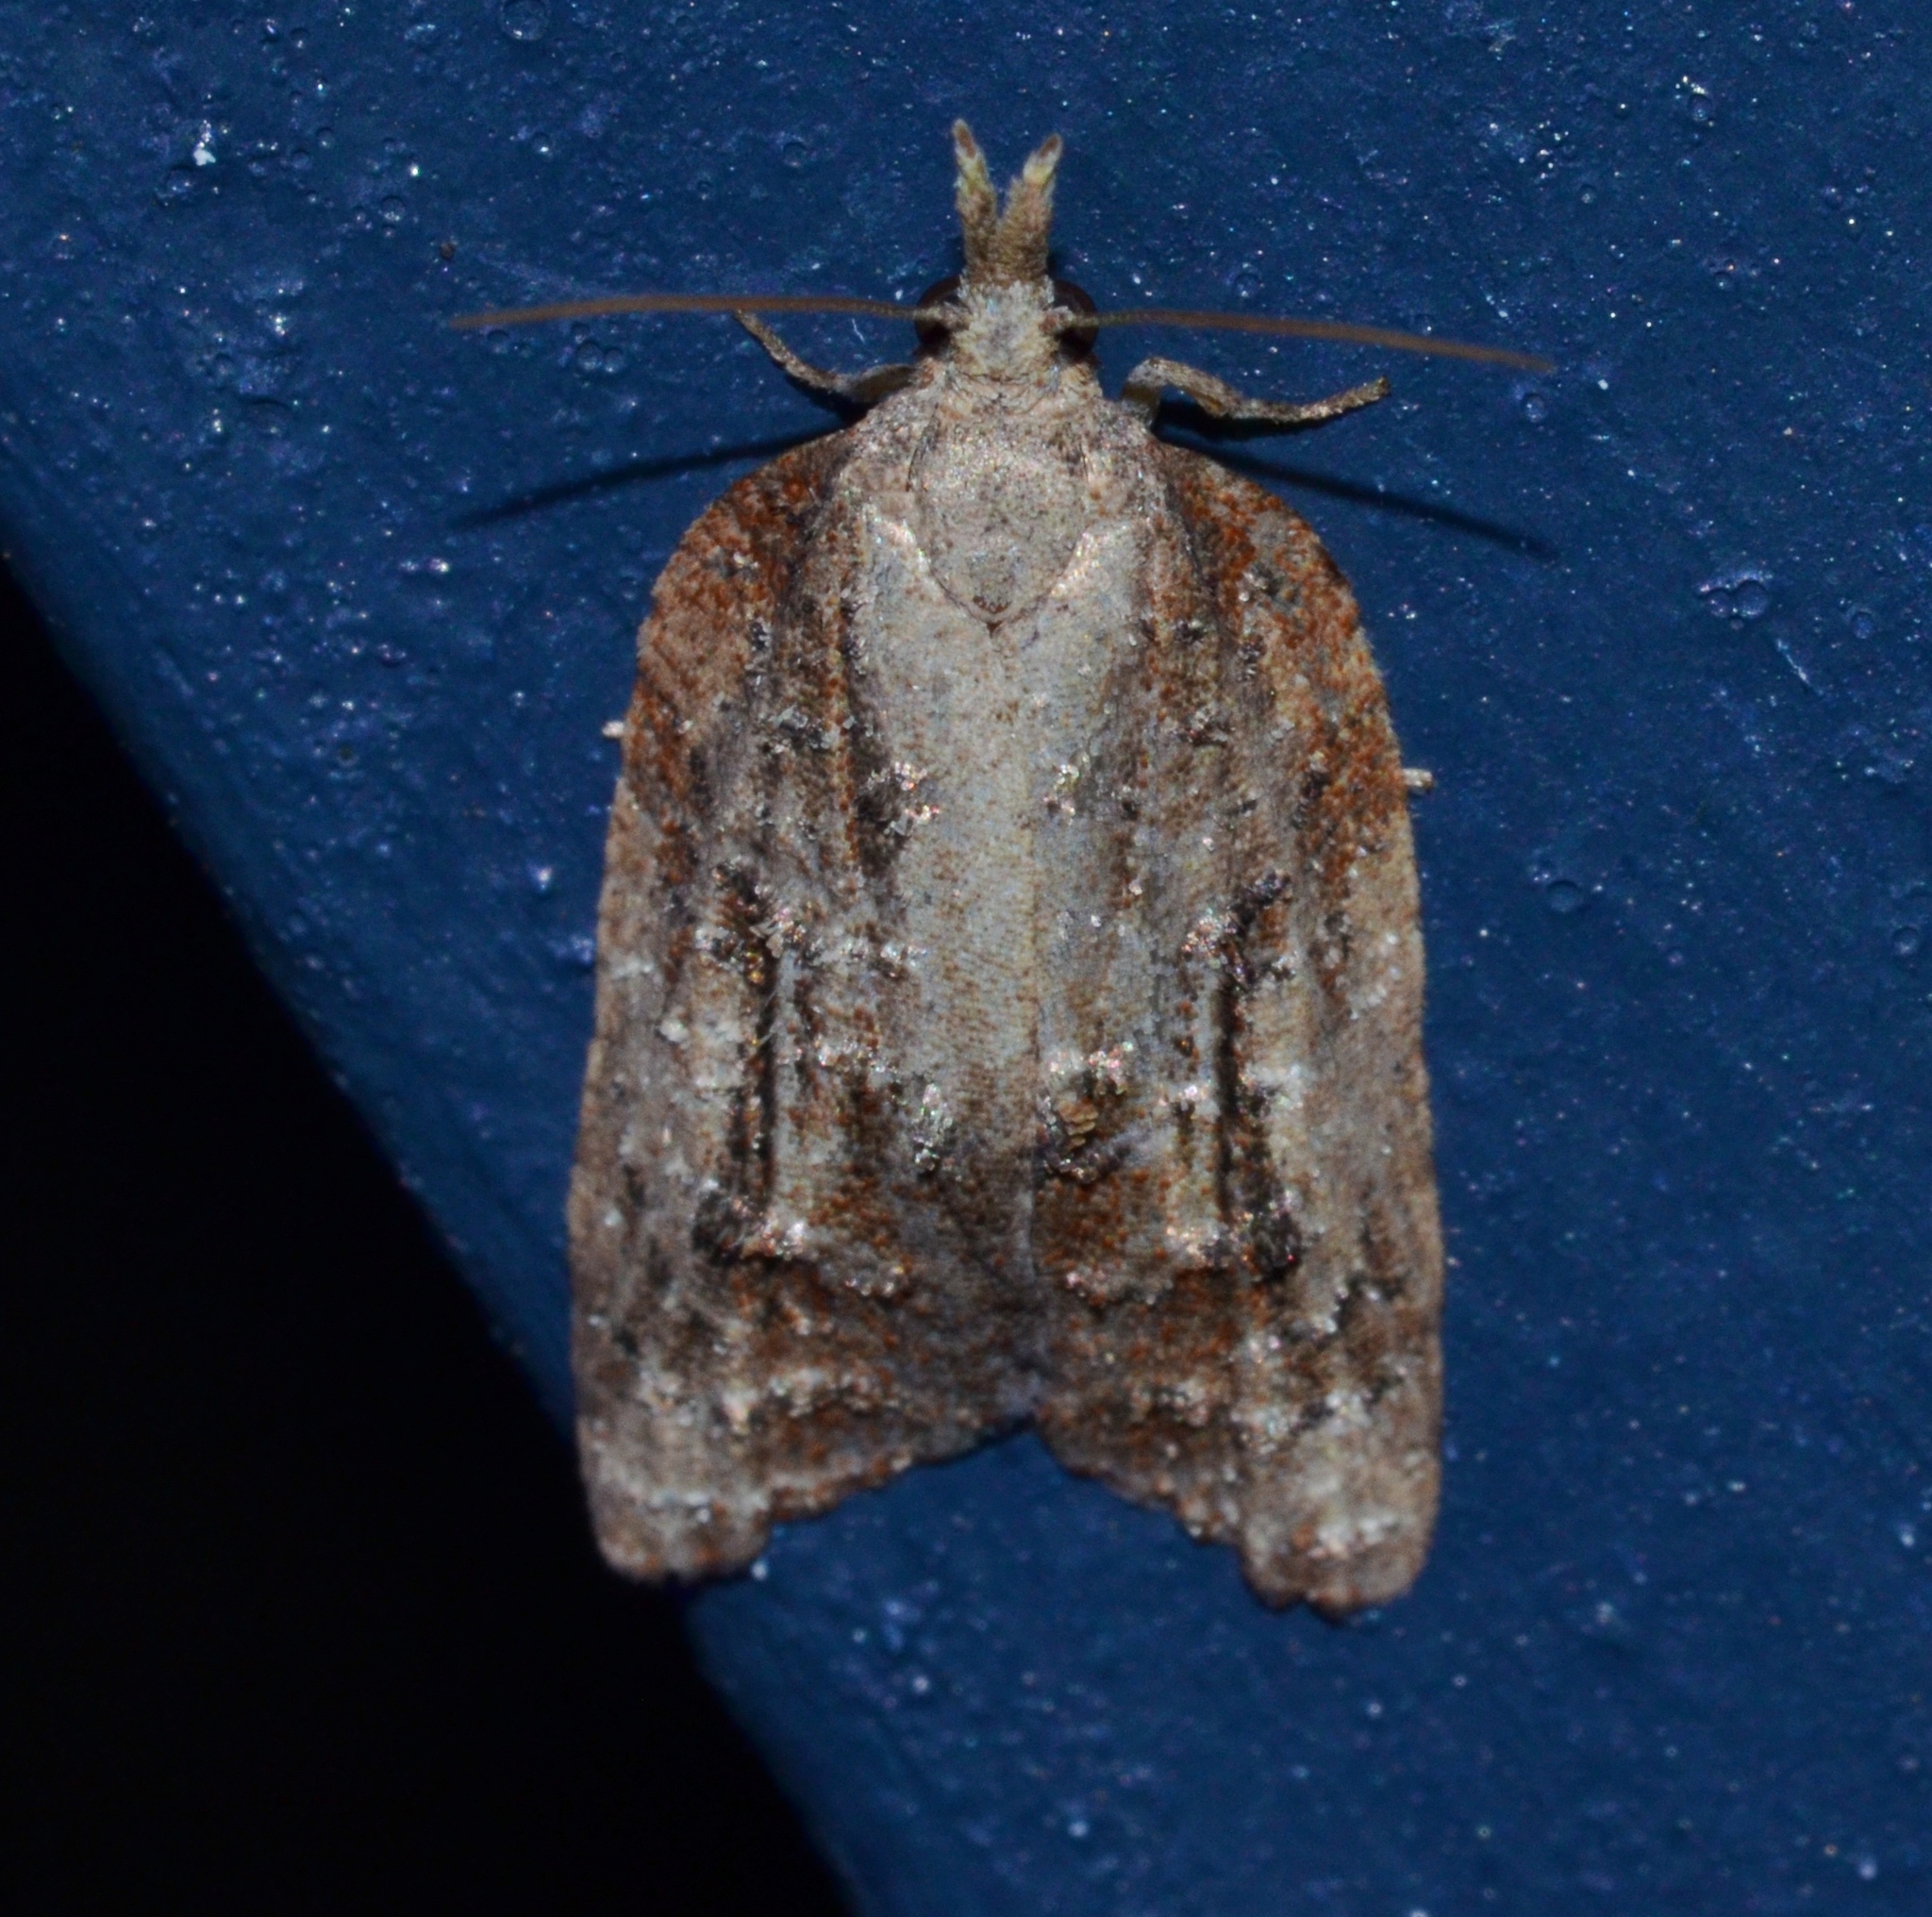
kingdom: Animalia
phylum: Arthropoda
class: Insecta
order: Lepidoptera
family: Tortricidae
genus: Platynota
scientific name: Platynota idaeusalis
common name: Tufted apple bud moth
